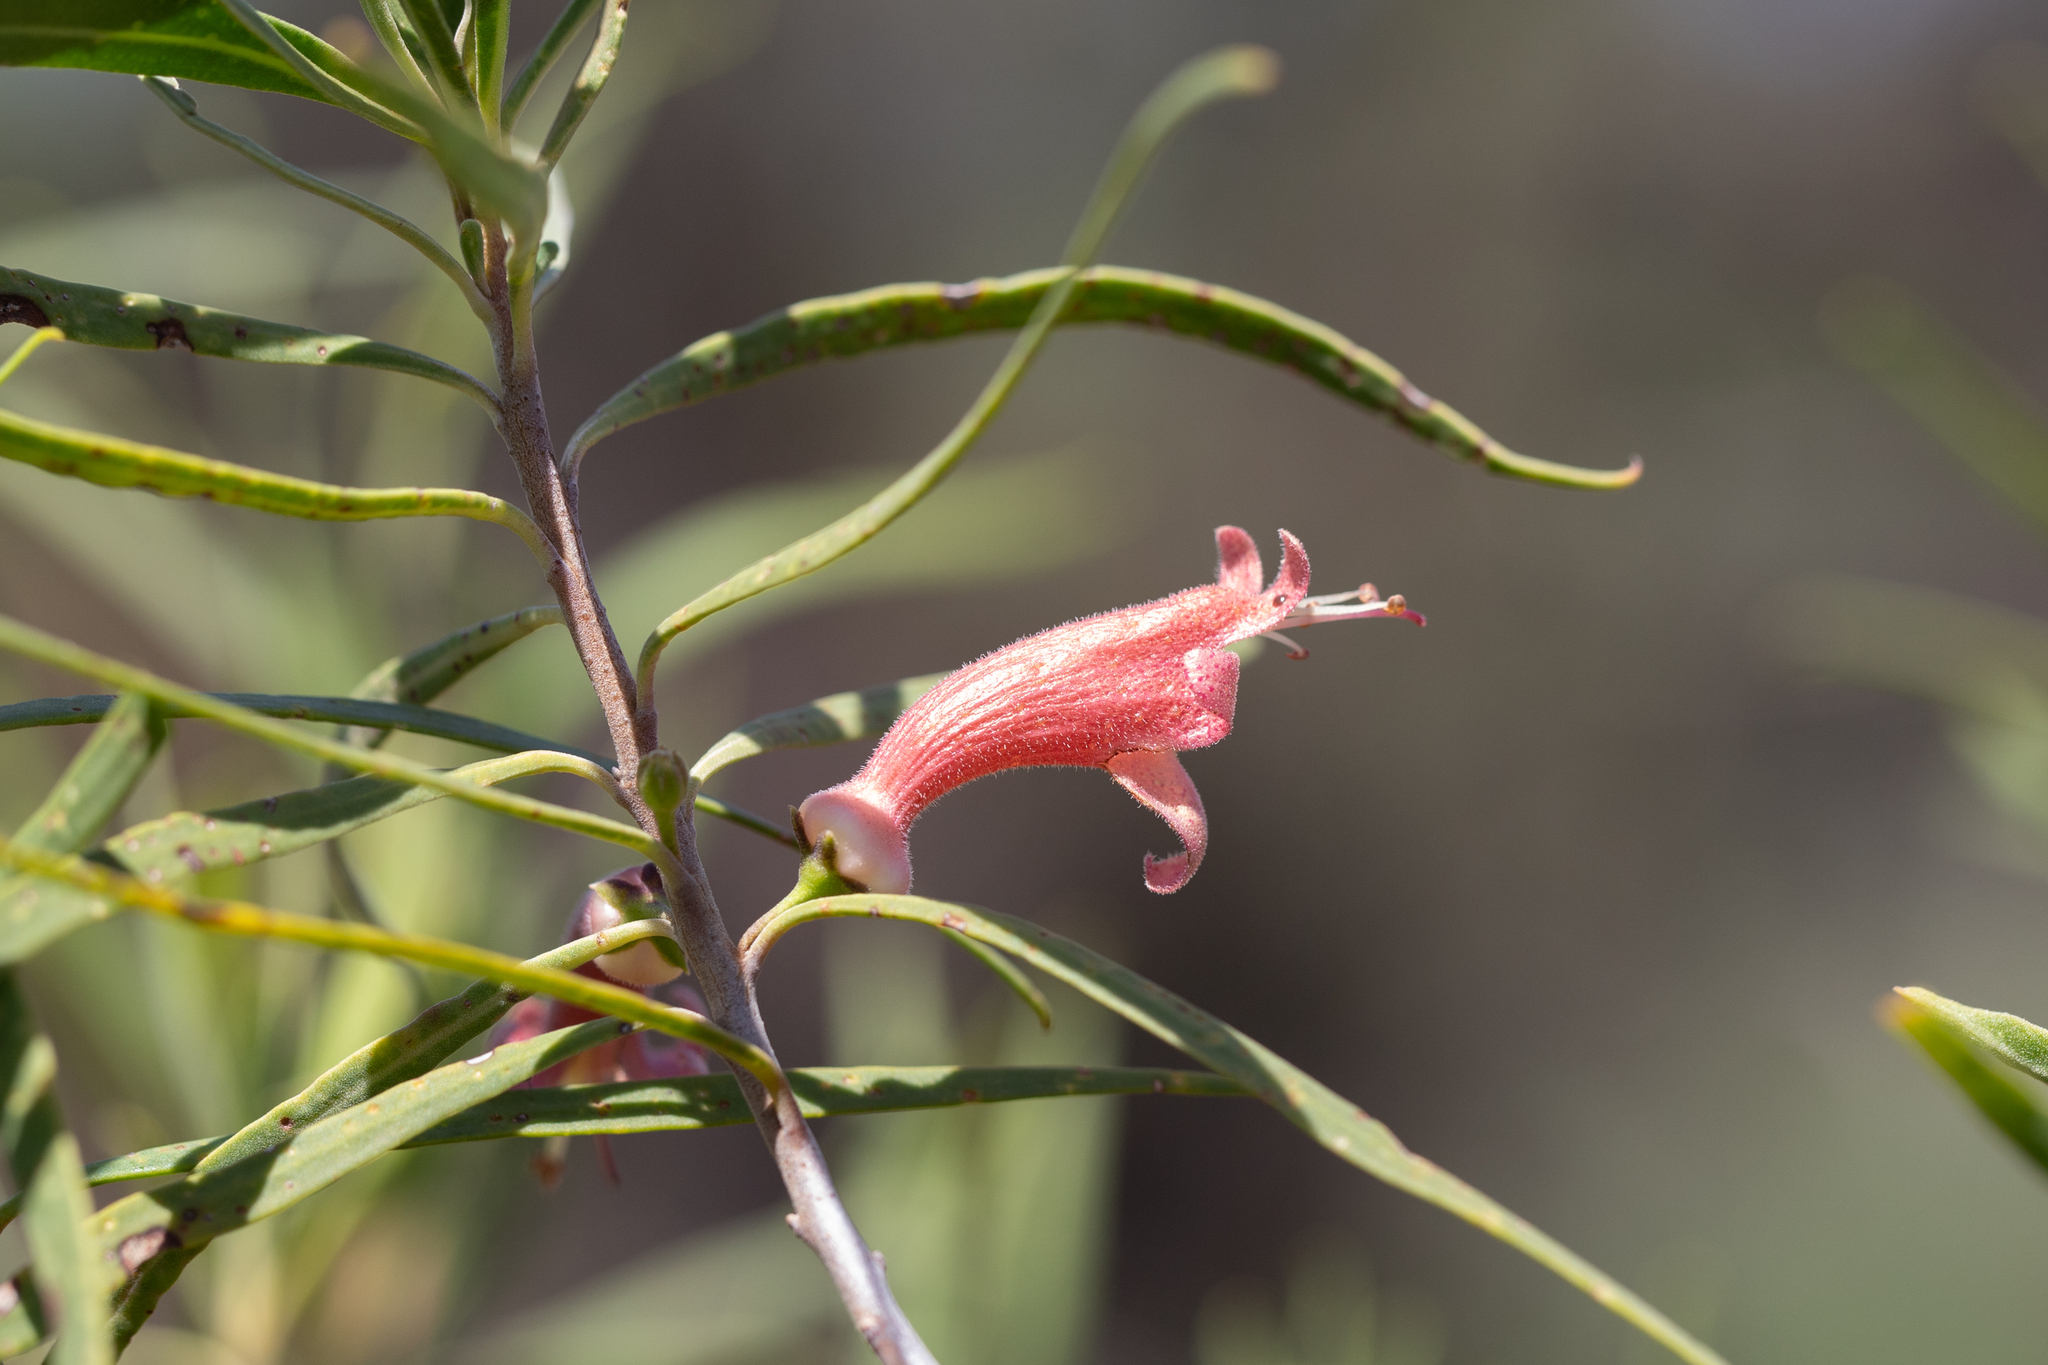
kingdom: Plantae
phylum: Tracheophyta
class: Magnoliopsida
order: Lamiales
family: Scrophulariaceae
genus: Eremophila
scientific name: Eremophila longifolia
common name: Longleaf emubush
